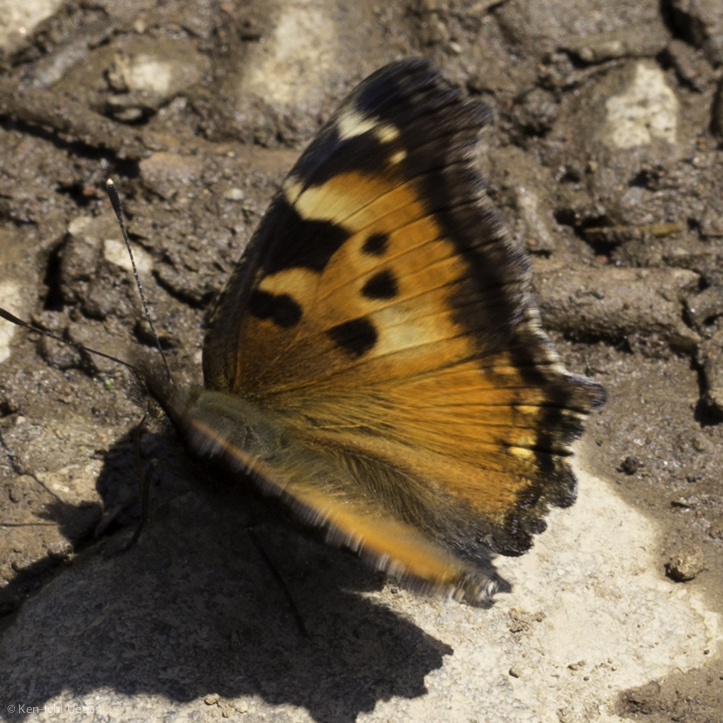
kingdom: Animalia
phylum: Arthropoda
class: Insecta
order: Lepidoptera
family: Nymphalidae
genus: Nymphalis
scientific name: Nymphalis californica
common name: California tortoiseshell
